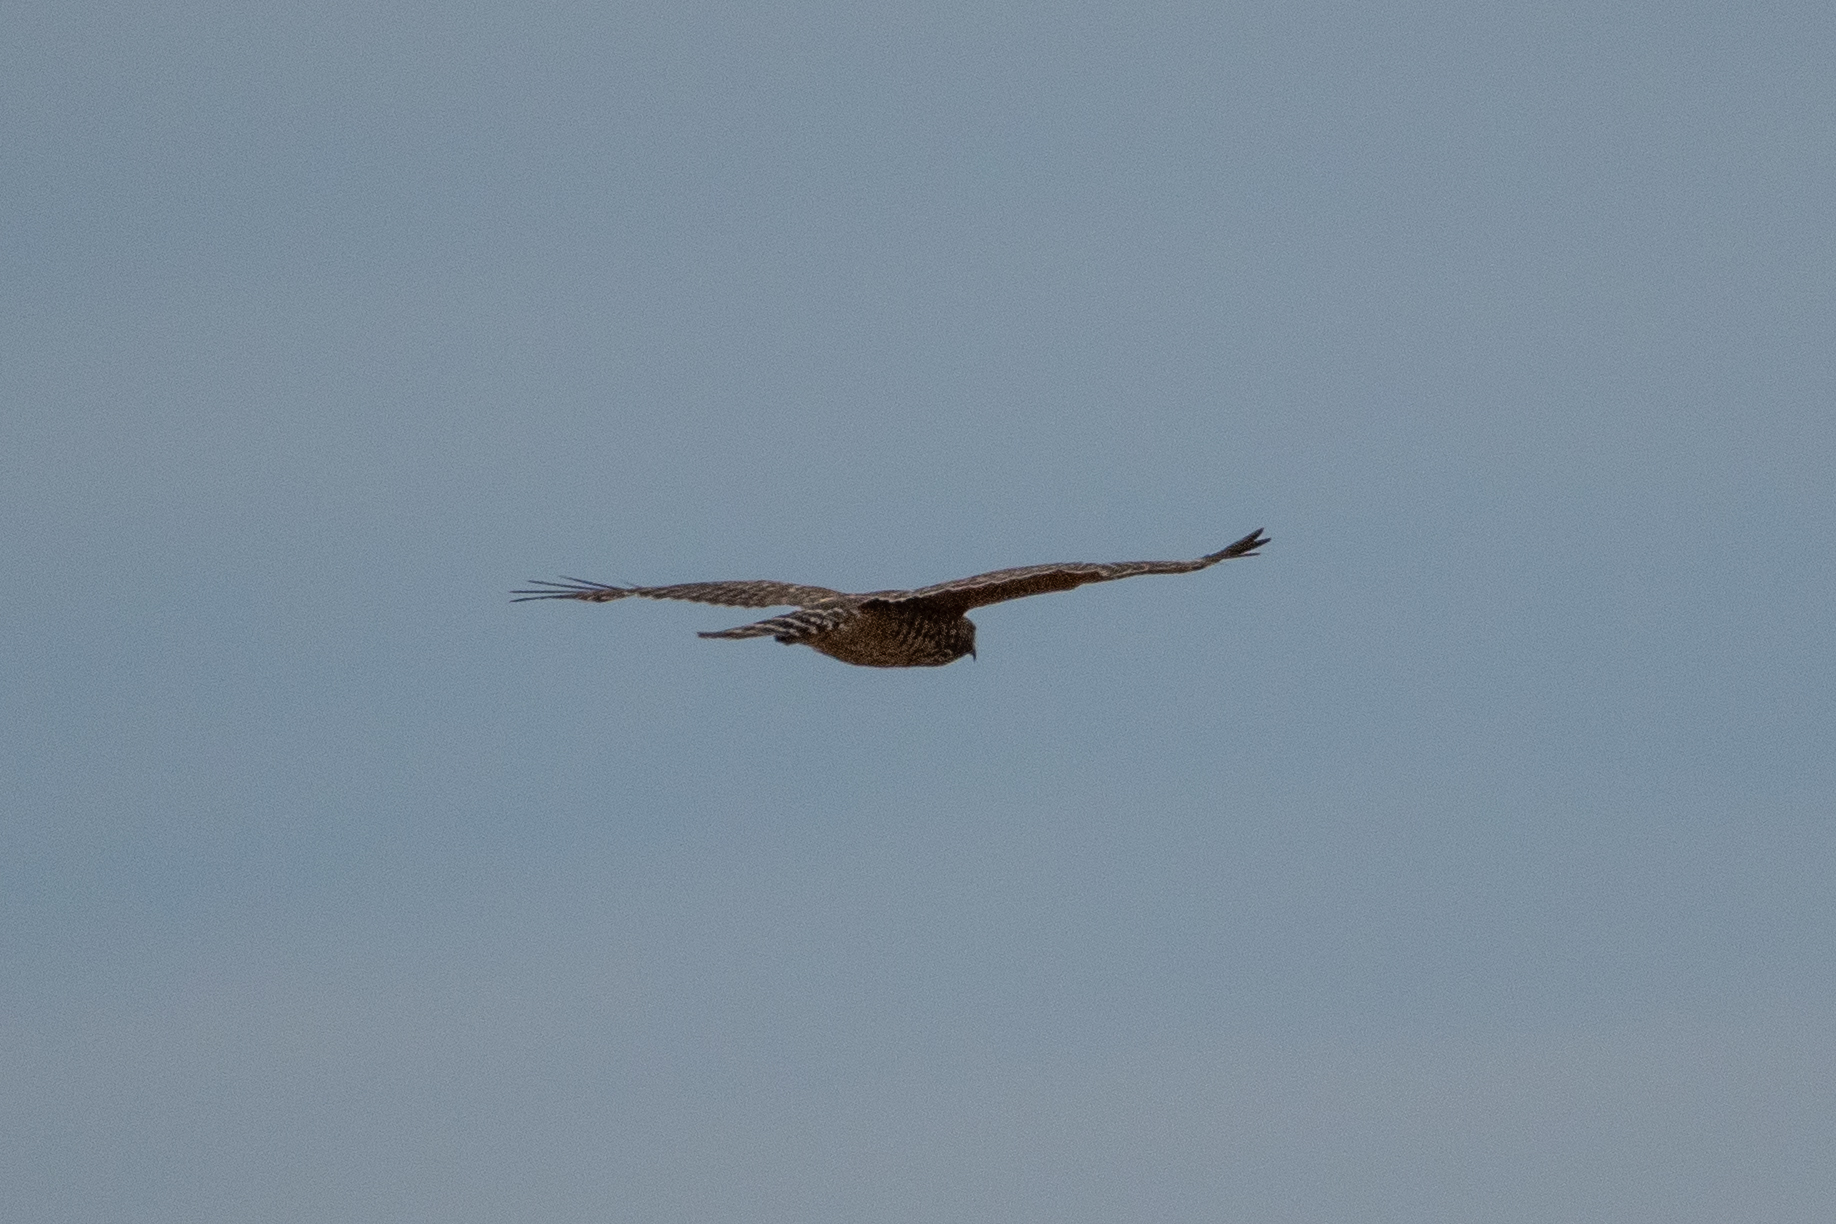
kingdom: Animalia
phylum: Chordata
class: Aves
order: Accipitriformes
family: Accipitridae
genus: Buteo
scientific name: Buteo lineatus
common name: Red-shouldered hawk
